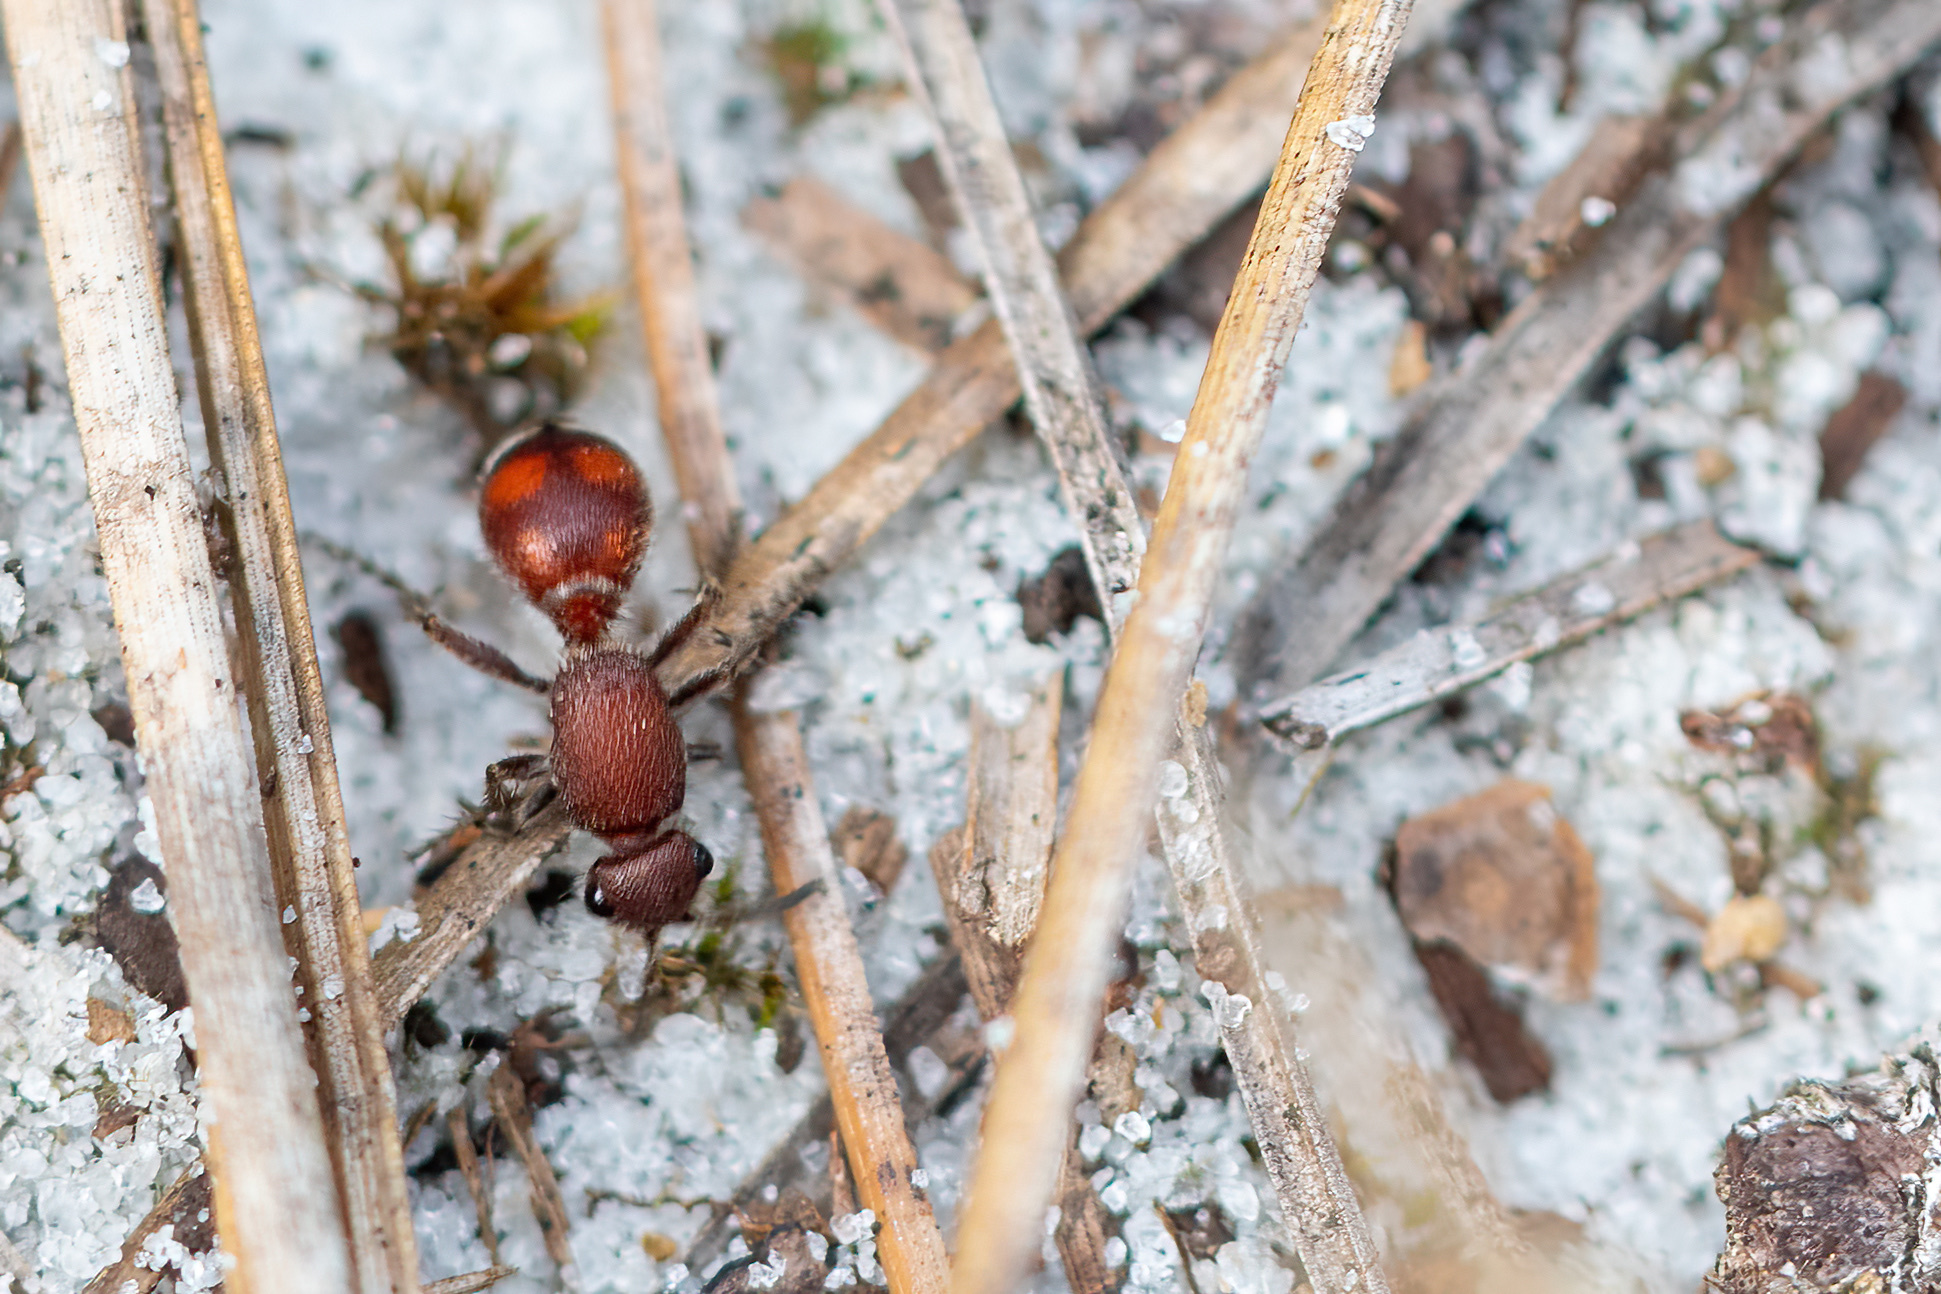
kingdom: Animalia
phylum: Arthropoda
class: Insecta
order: Hymenoptera
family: Mutillidae
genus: Dasymutilla
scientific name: Dasymutilla
